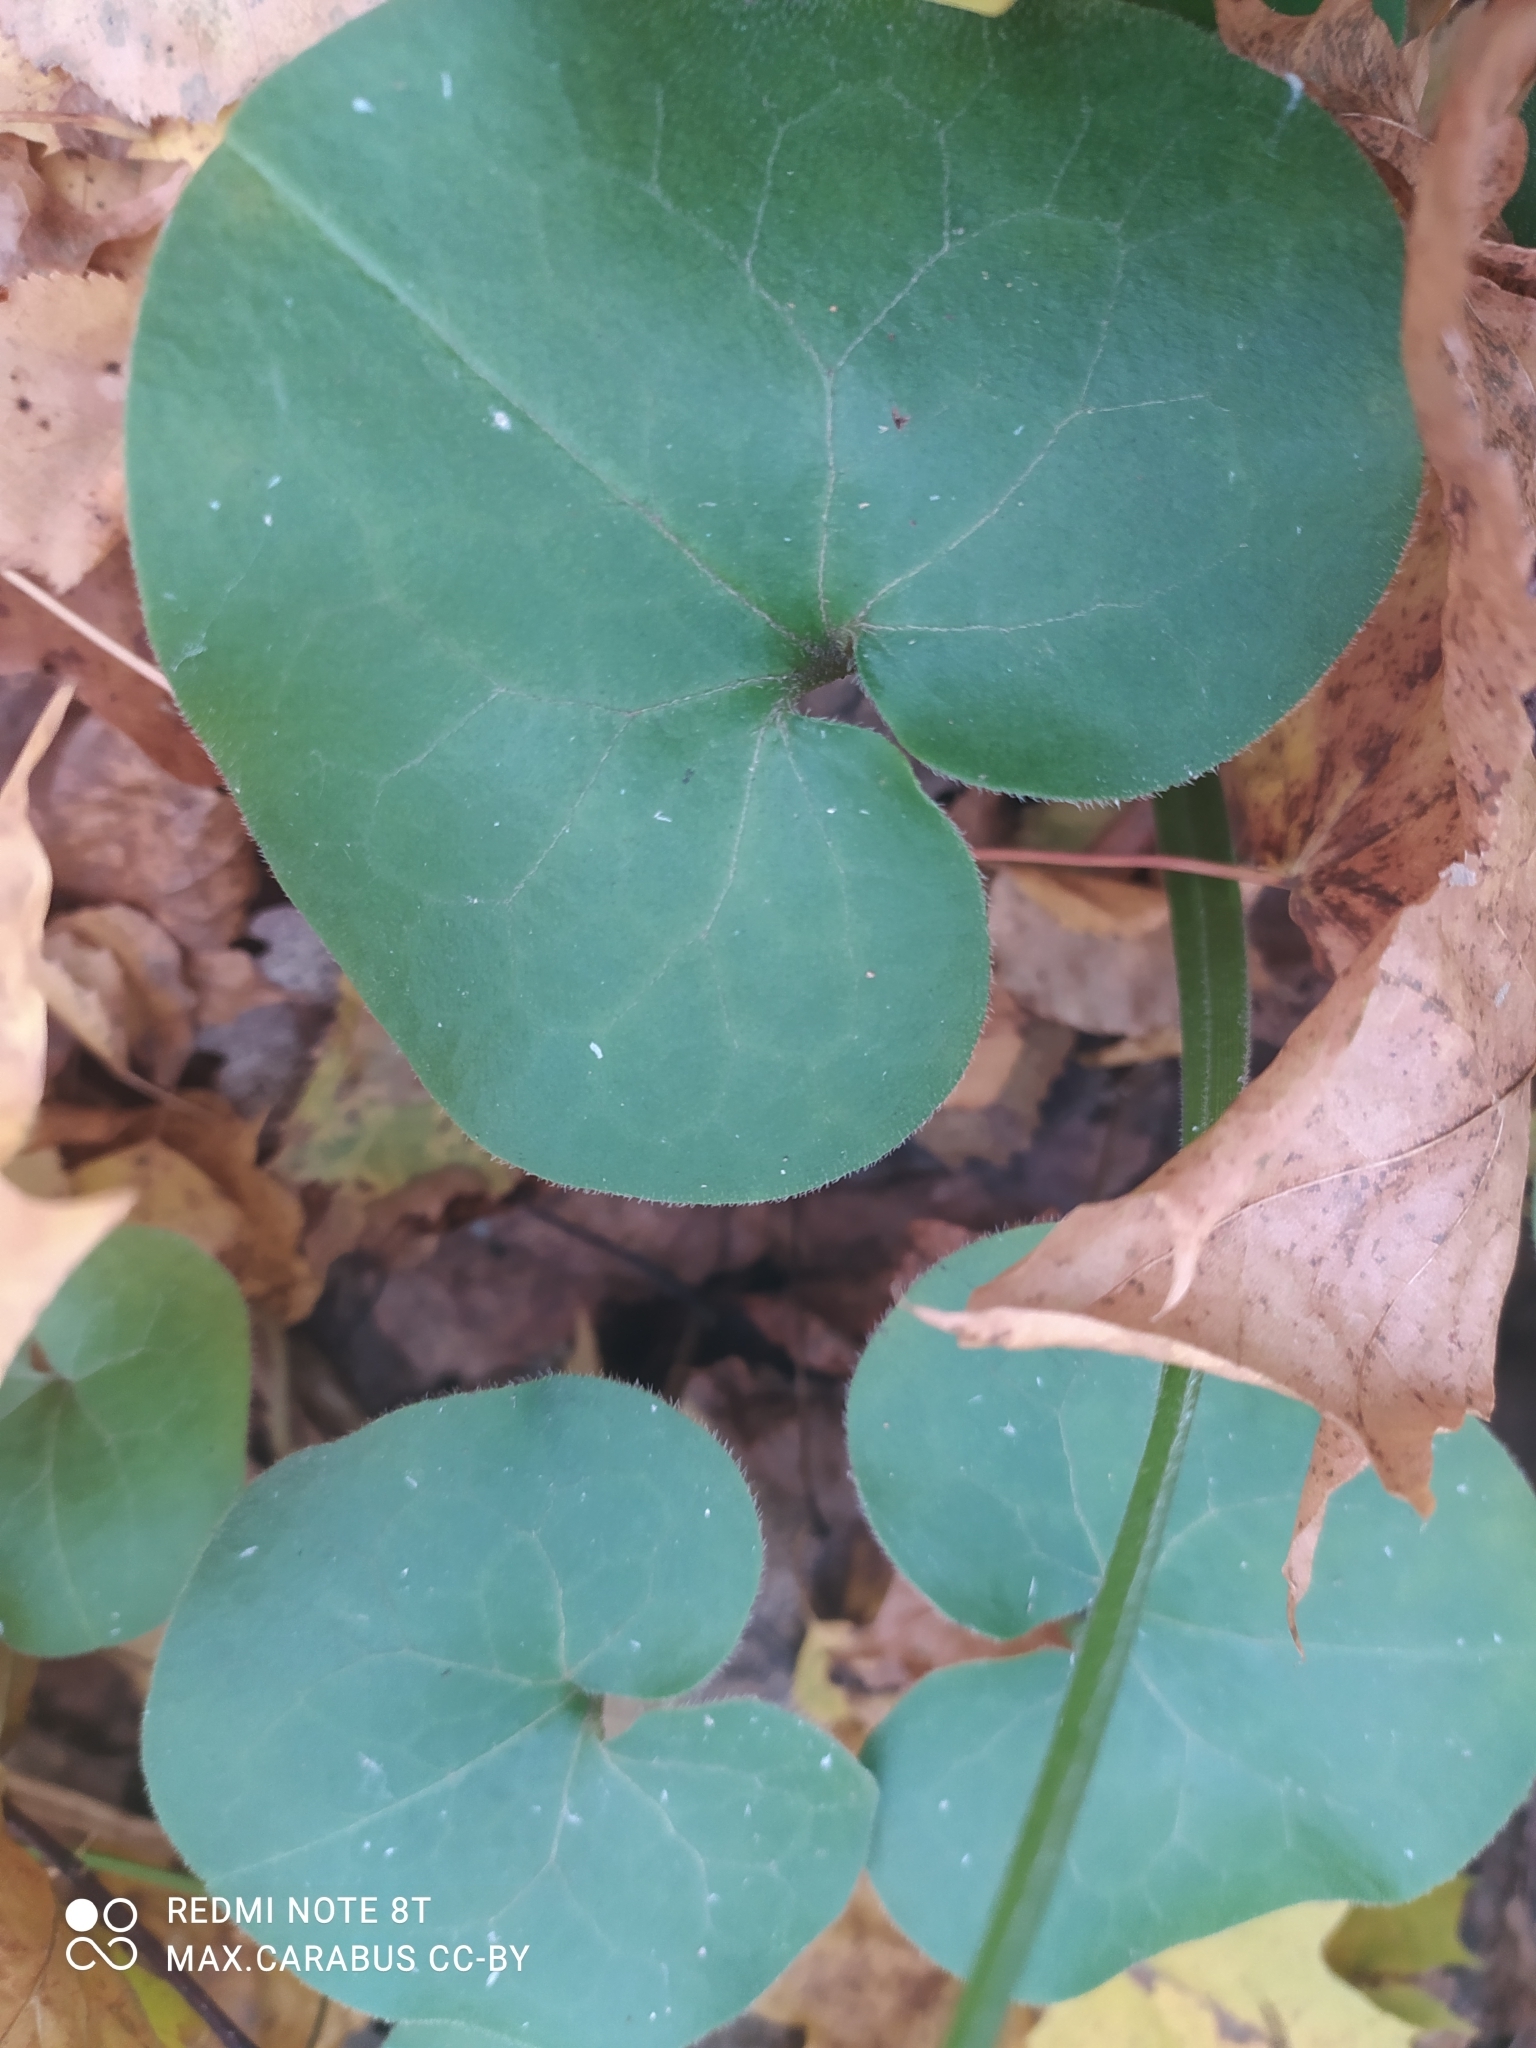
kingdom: Plantae
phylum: Tracheophyta
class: Magnoliopsida
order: Piperales
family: Aristolochiaceae
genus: Asarum
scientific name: Asarum europaeum
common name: Asarabacca
